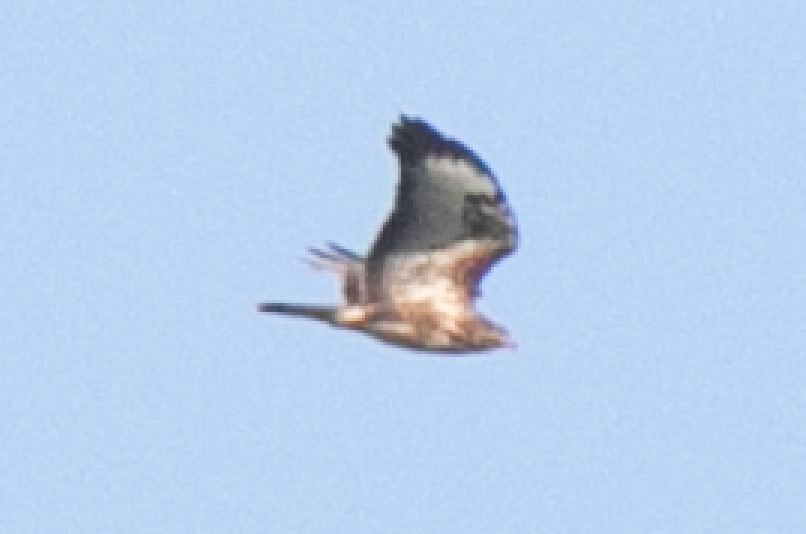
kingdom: Animalia
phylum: Chordata
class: Aves
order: Accipitriformes
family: Accipitridae
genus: Buteo
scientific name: Buteo buteo
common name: Common buzzard
